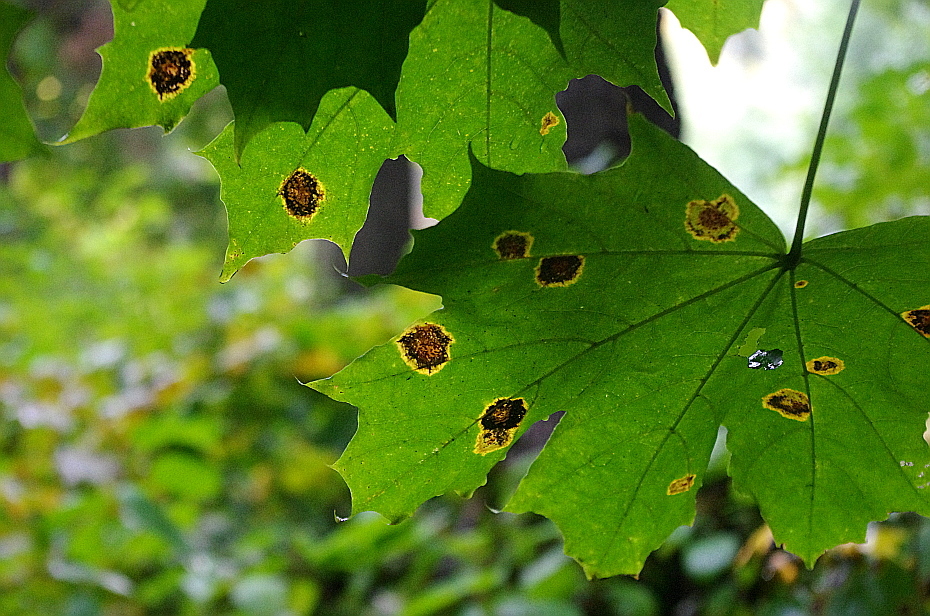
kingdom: Fungi
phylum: Ascomycota
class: Leotiomycetes
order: Rhytismatales
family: Rhytismataceae
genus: Rhytisma
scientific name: Rhytisma acerinum
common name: European tar spot
